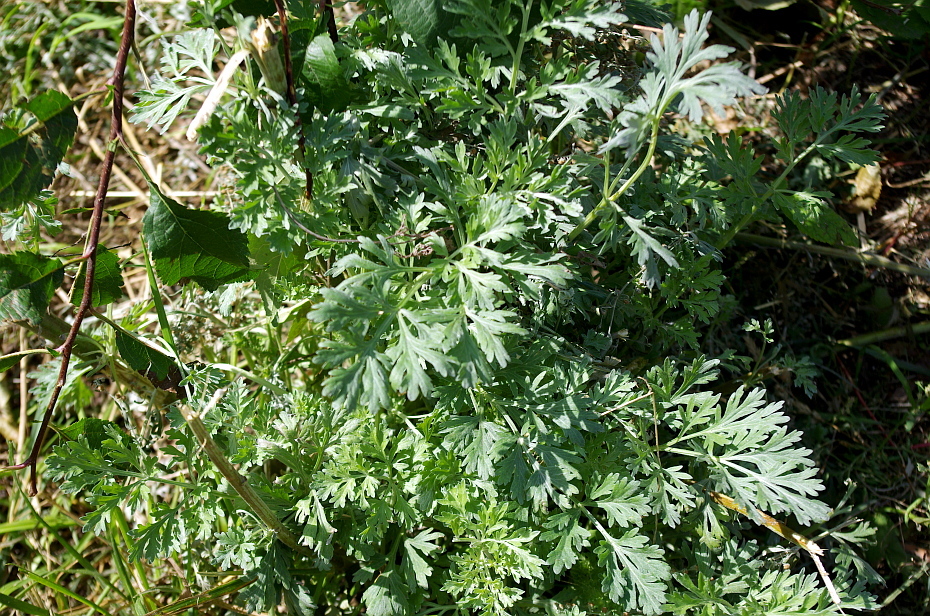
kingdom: Plantae
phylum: Tracheophyta
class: Magnoliopsida
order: Asterales
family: Asteraceae
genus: Artemisia
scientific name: Artemisia absinthium
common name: Wormwood
